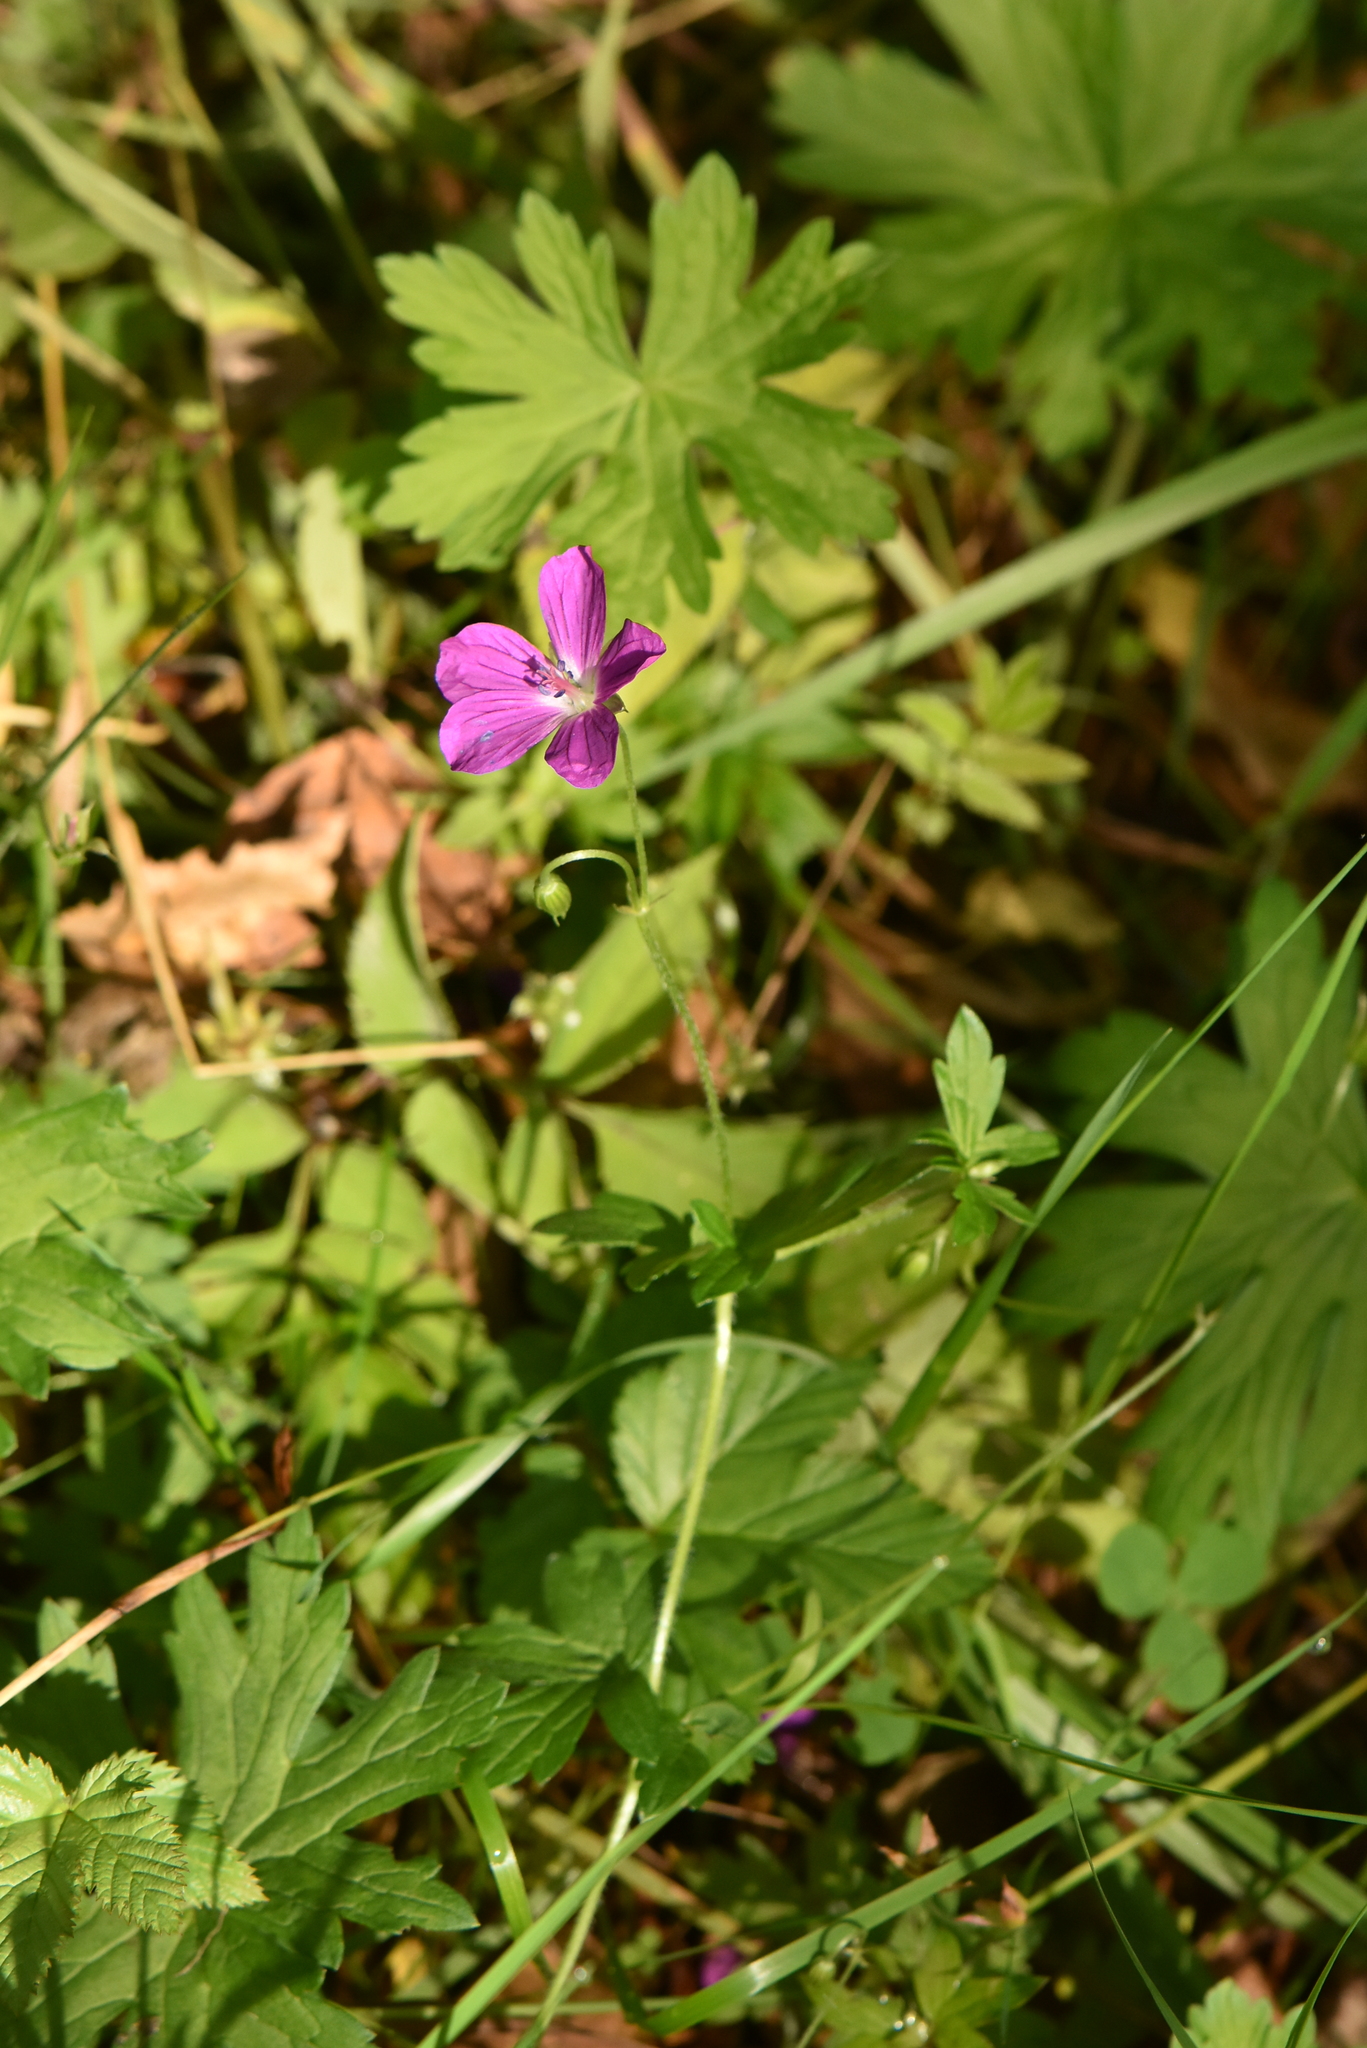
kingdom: Plantae
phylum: Tracheophyta
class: Magnoliopsida
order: Geraniales
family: Geraniaceae
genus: Geranium
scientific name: Geranium palustre
